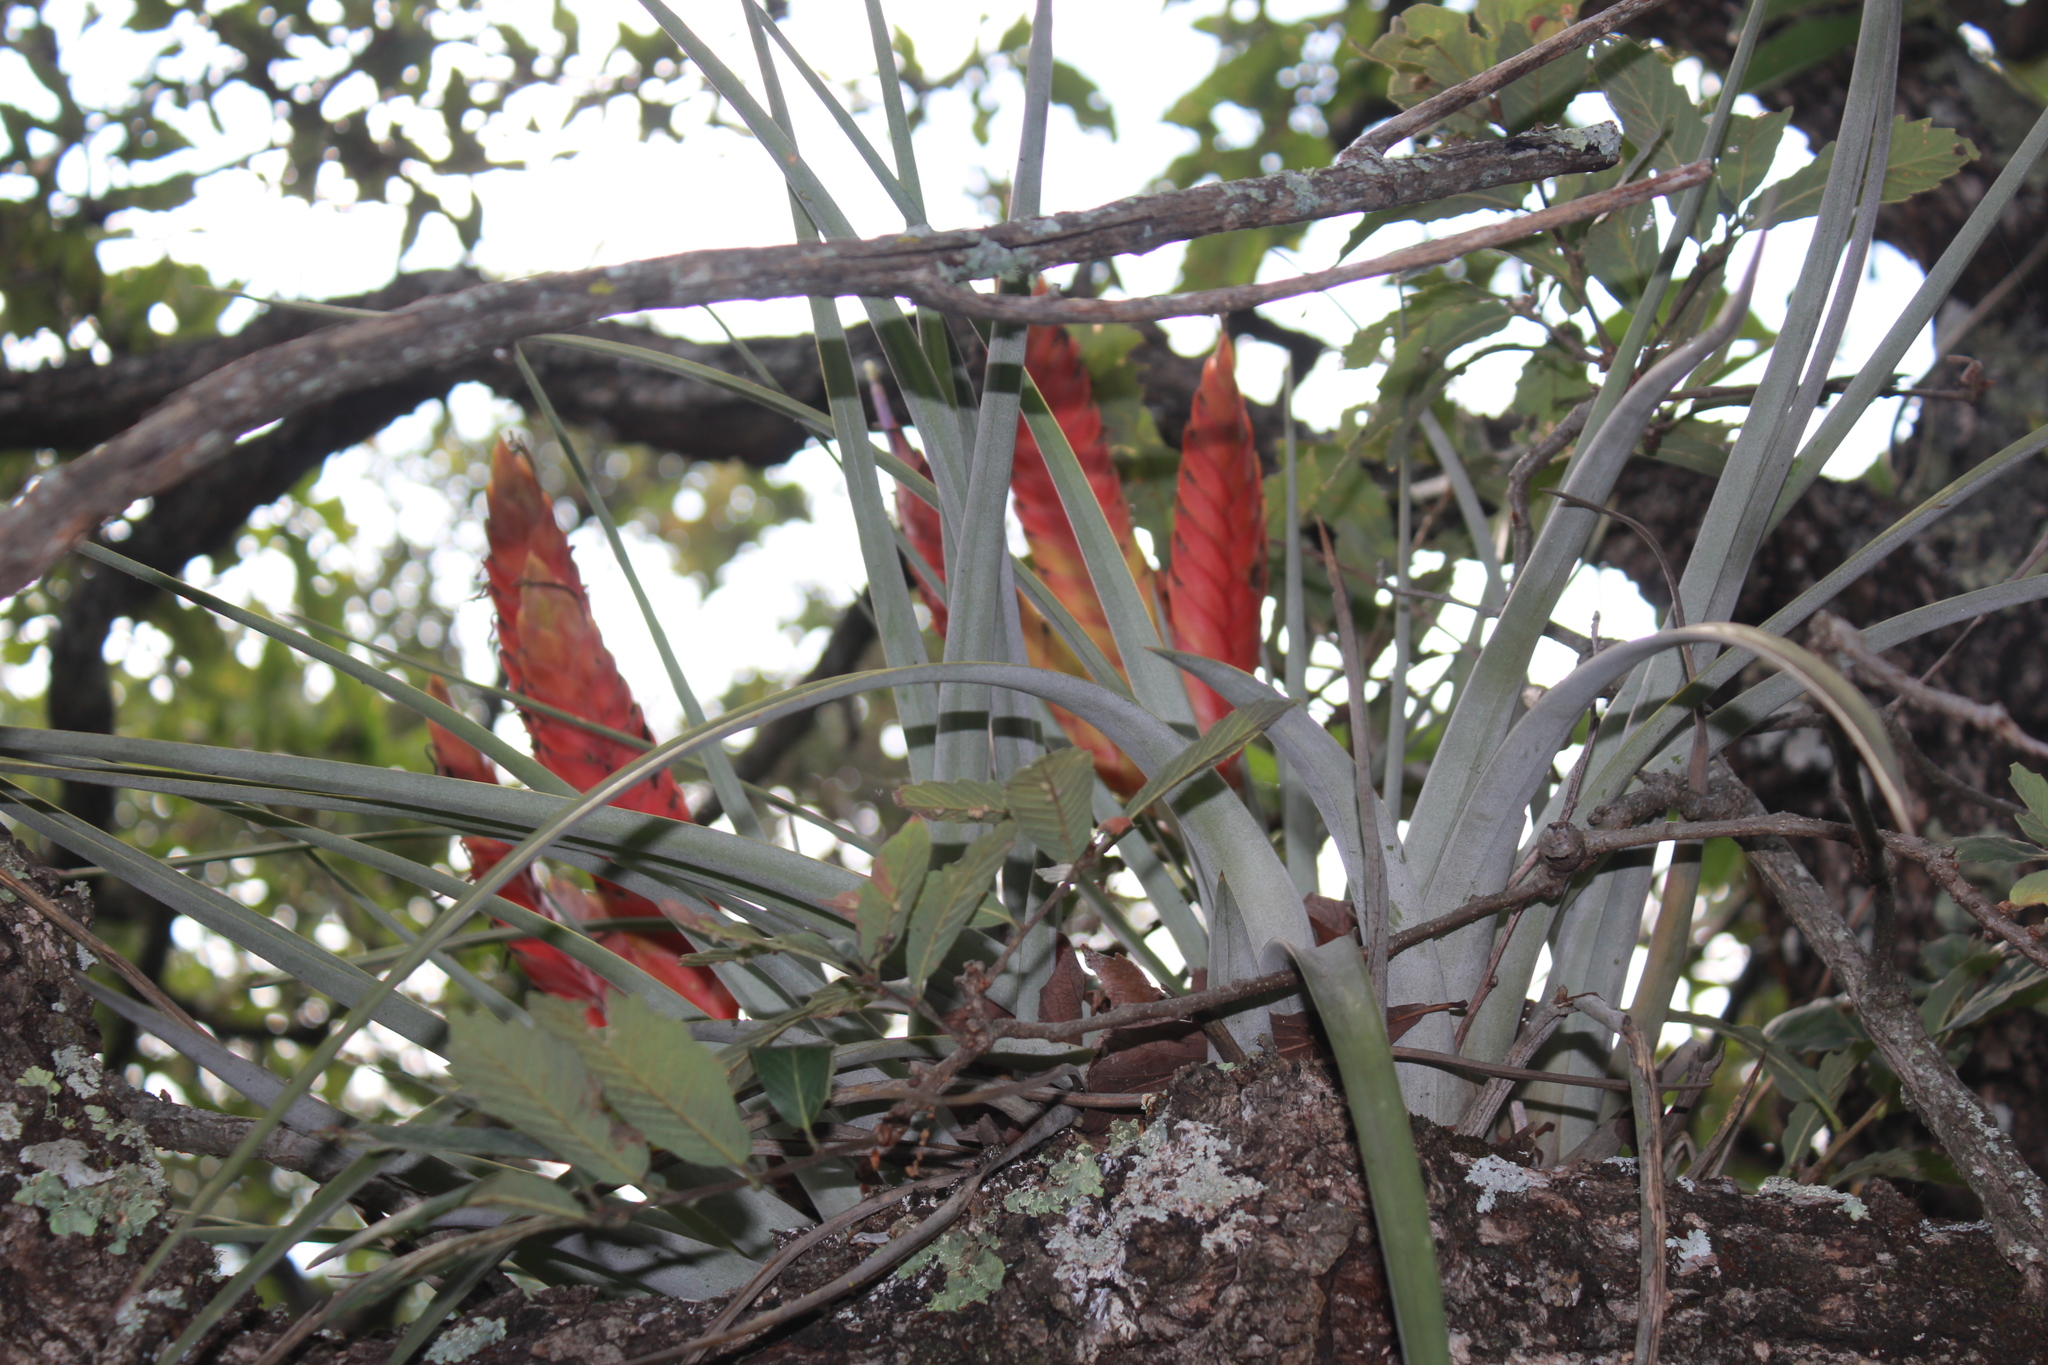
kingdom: Plantae
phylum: Tracheophyta
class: Liliopsida
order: Poales
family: Bromeliaceae
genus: Tillandsia
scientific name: Tillandsia grossispicata
